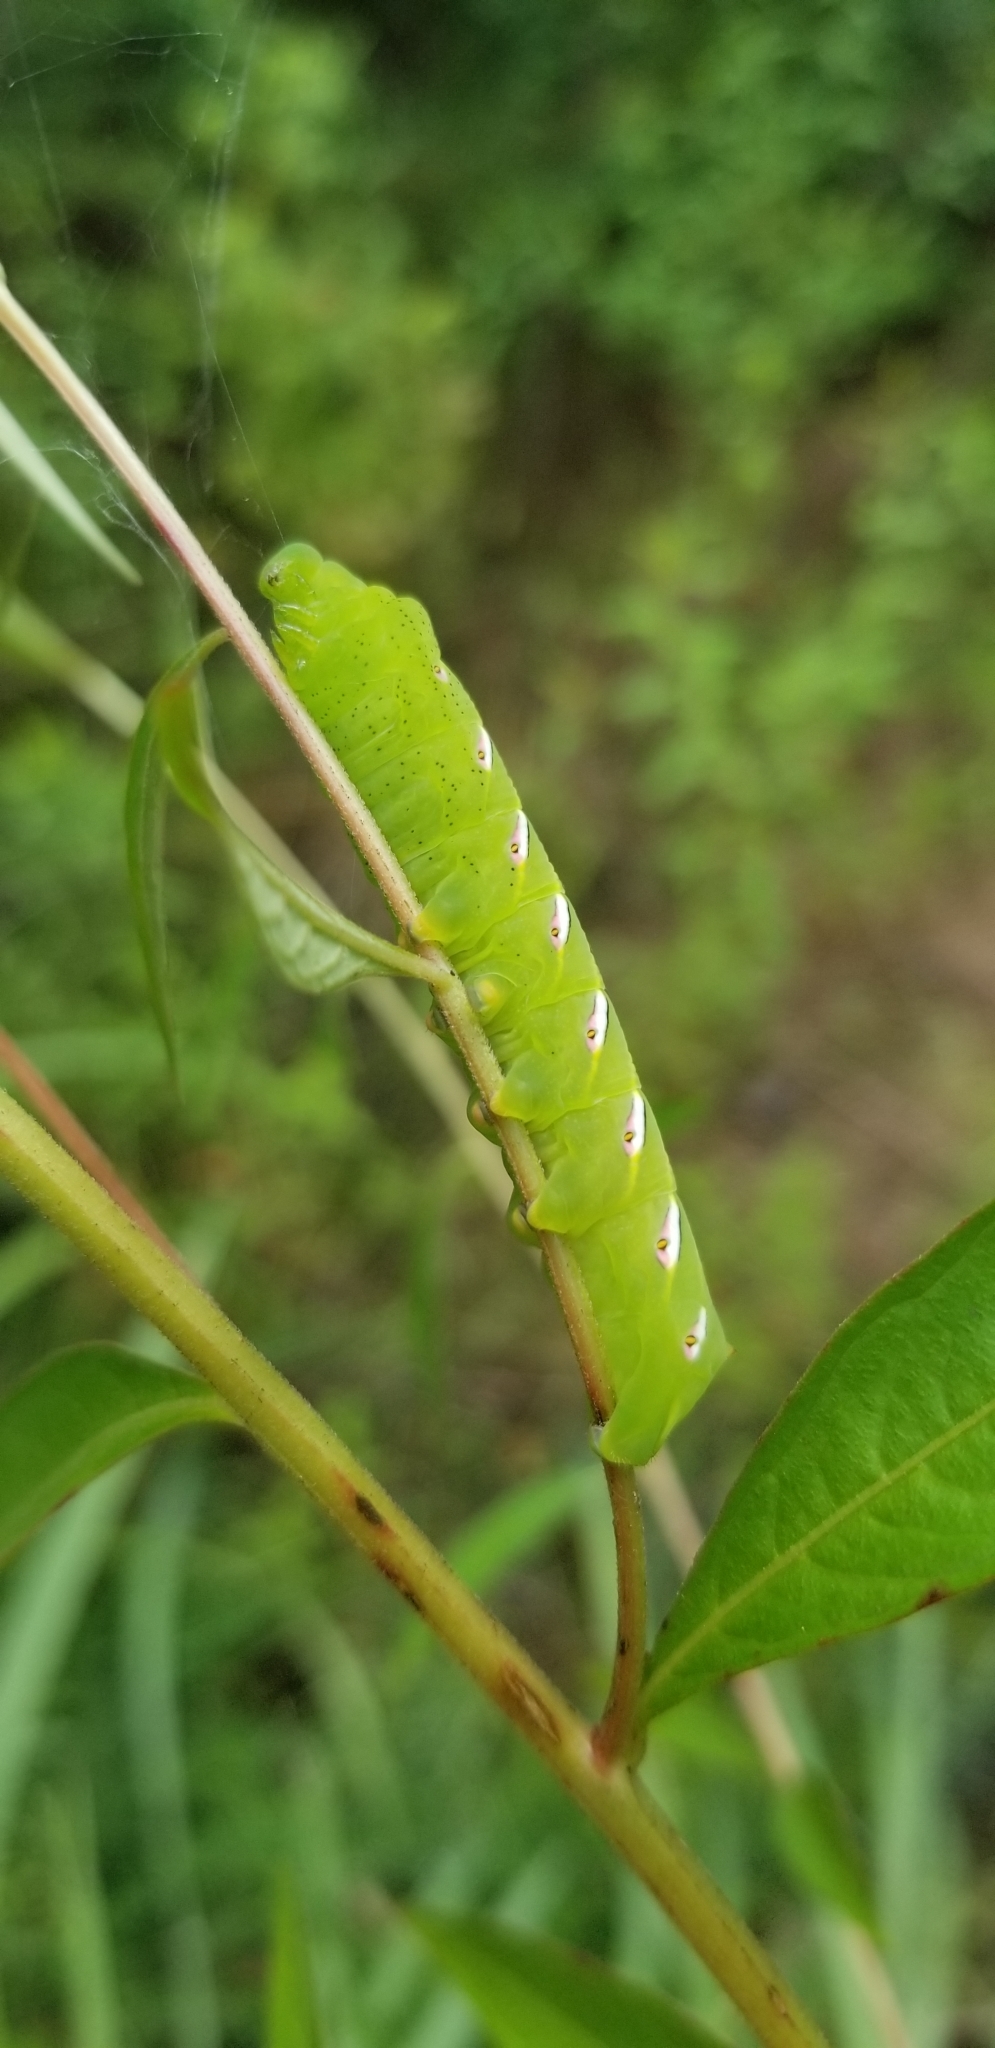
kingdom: Animalia
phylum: Arthropoda
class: Insecta
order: Lepidoptera
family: Sphingidae
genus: Eumorpha
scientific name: Eumorpha fasciatus
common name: Banded sphinx
